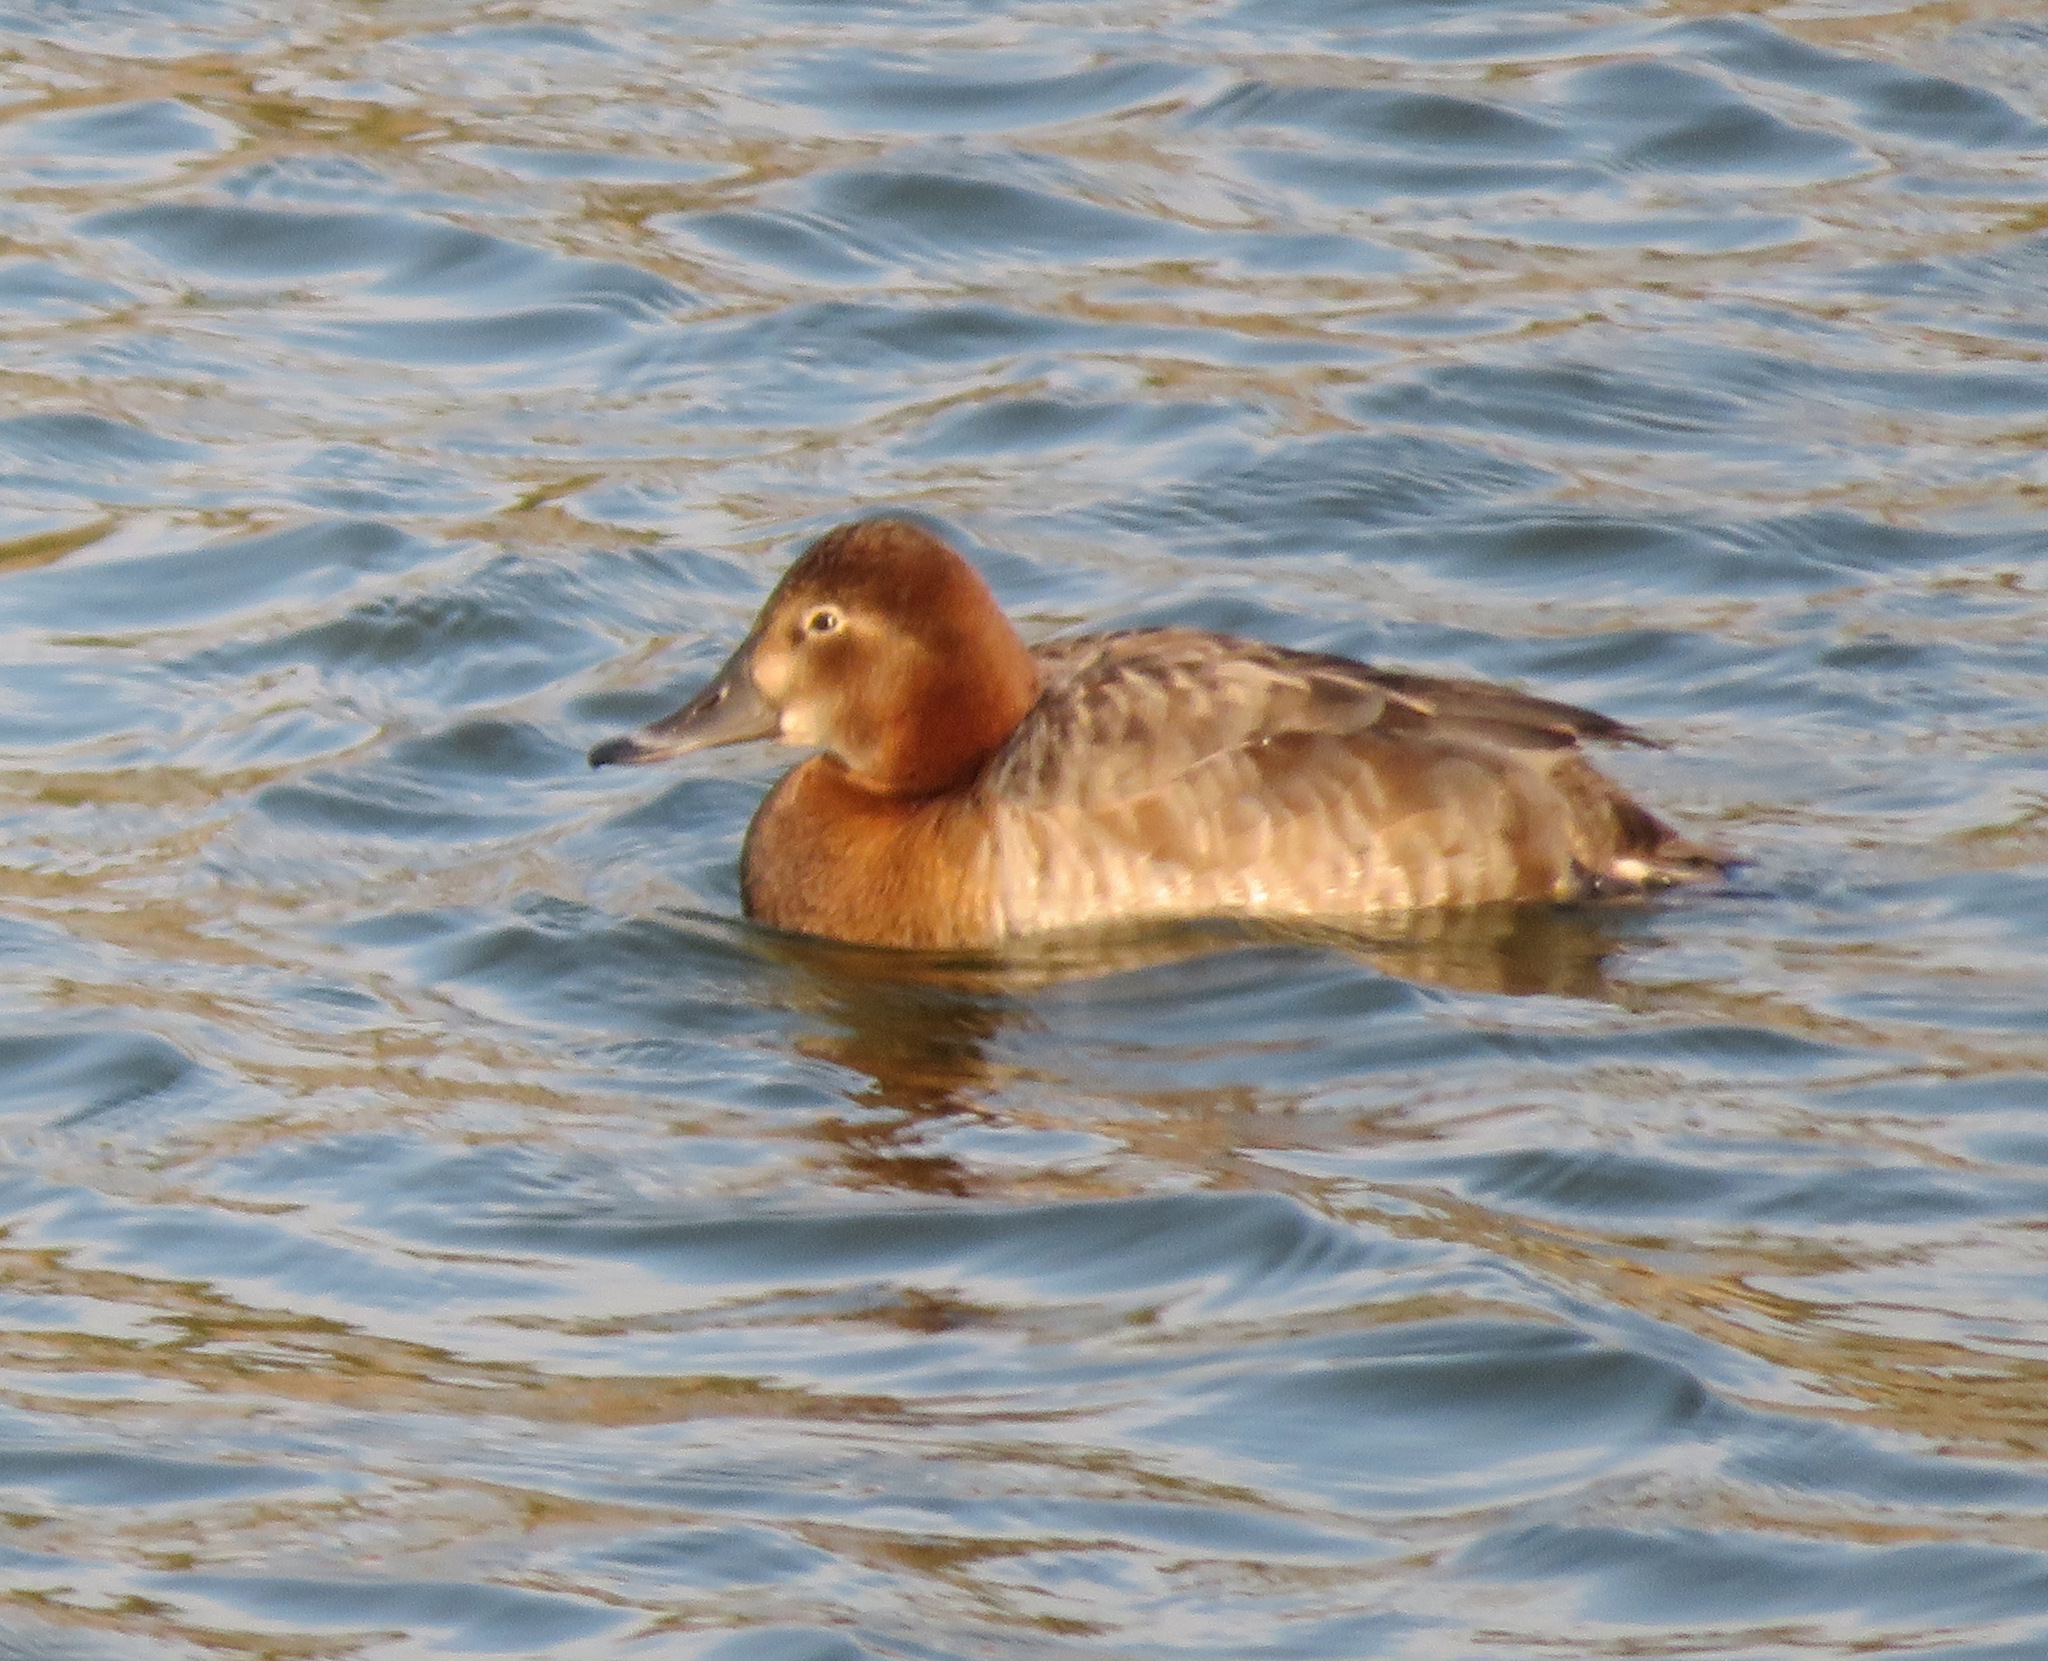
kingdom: Animalia
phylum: Chordata
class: Aves
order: Anseriformes
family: Anatidae
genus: Aythya
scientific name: Aythya ferina
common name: Common pochard
